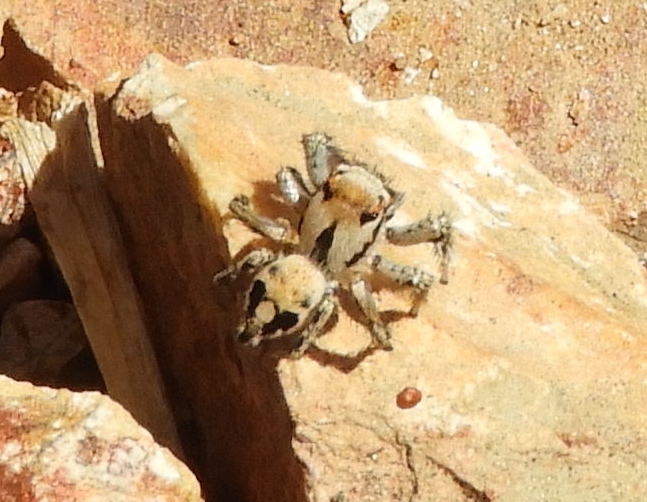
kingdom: Animalia
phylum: Arthropoda
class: Arachnida
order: Araneae
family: Salticidae
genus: Habronattus
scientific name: Habronattus aztecanus
